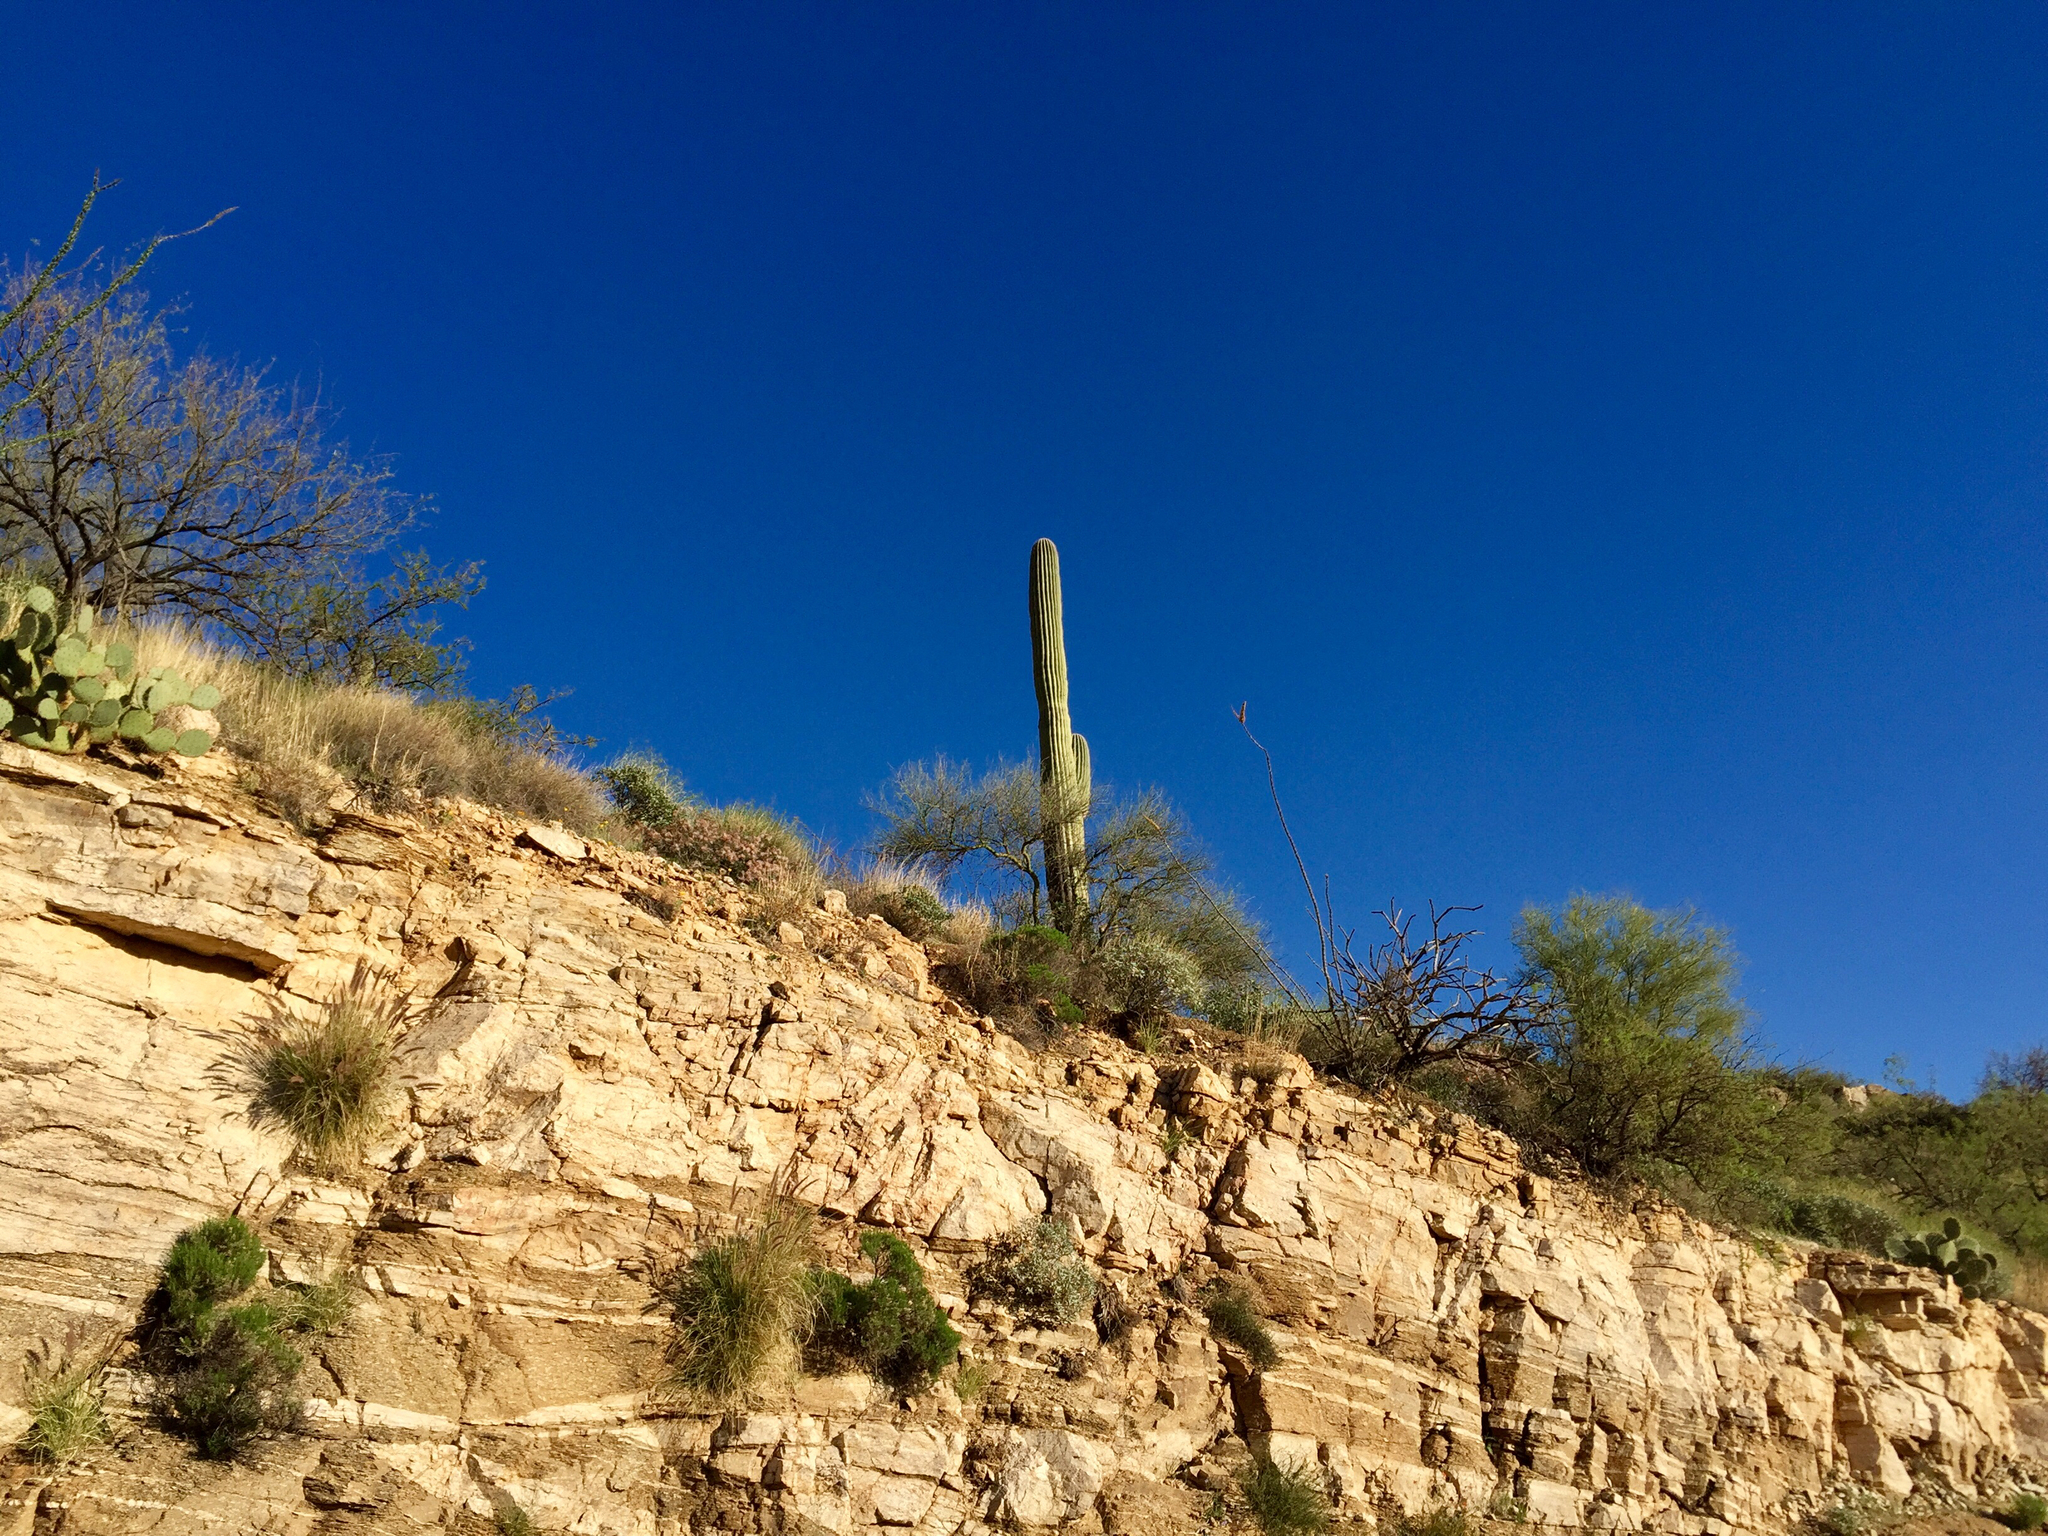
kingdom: Plantae
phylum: Tracheophyta
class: Magnoliopsida
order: Fabales
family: Fabaceae
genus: Parkinsonia
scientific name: Parkinsonia microphylla
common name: Yellow paloverde
